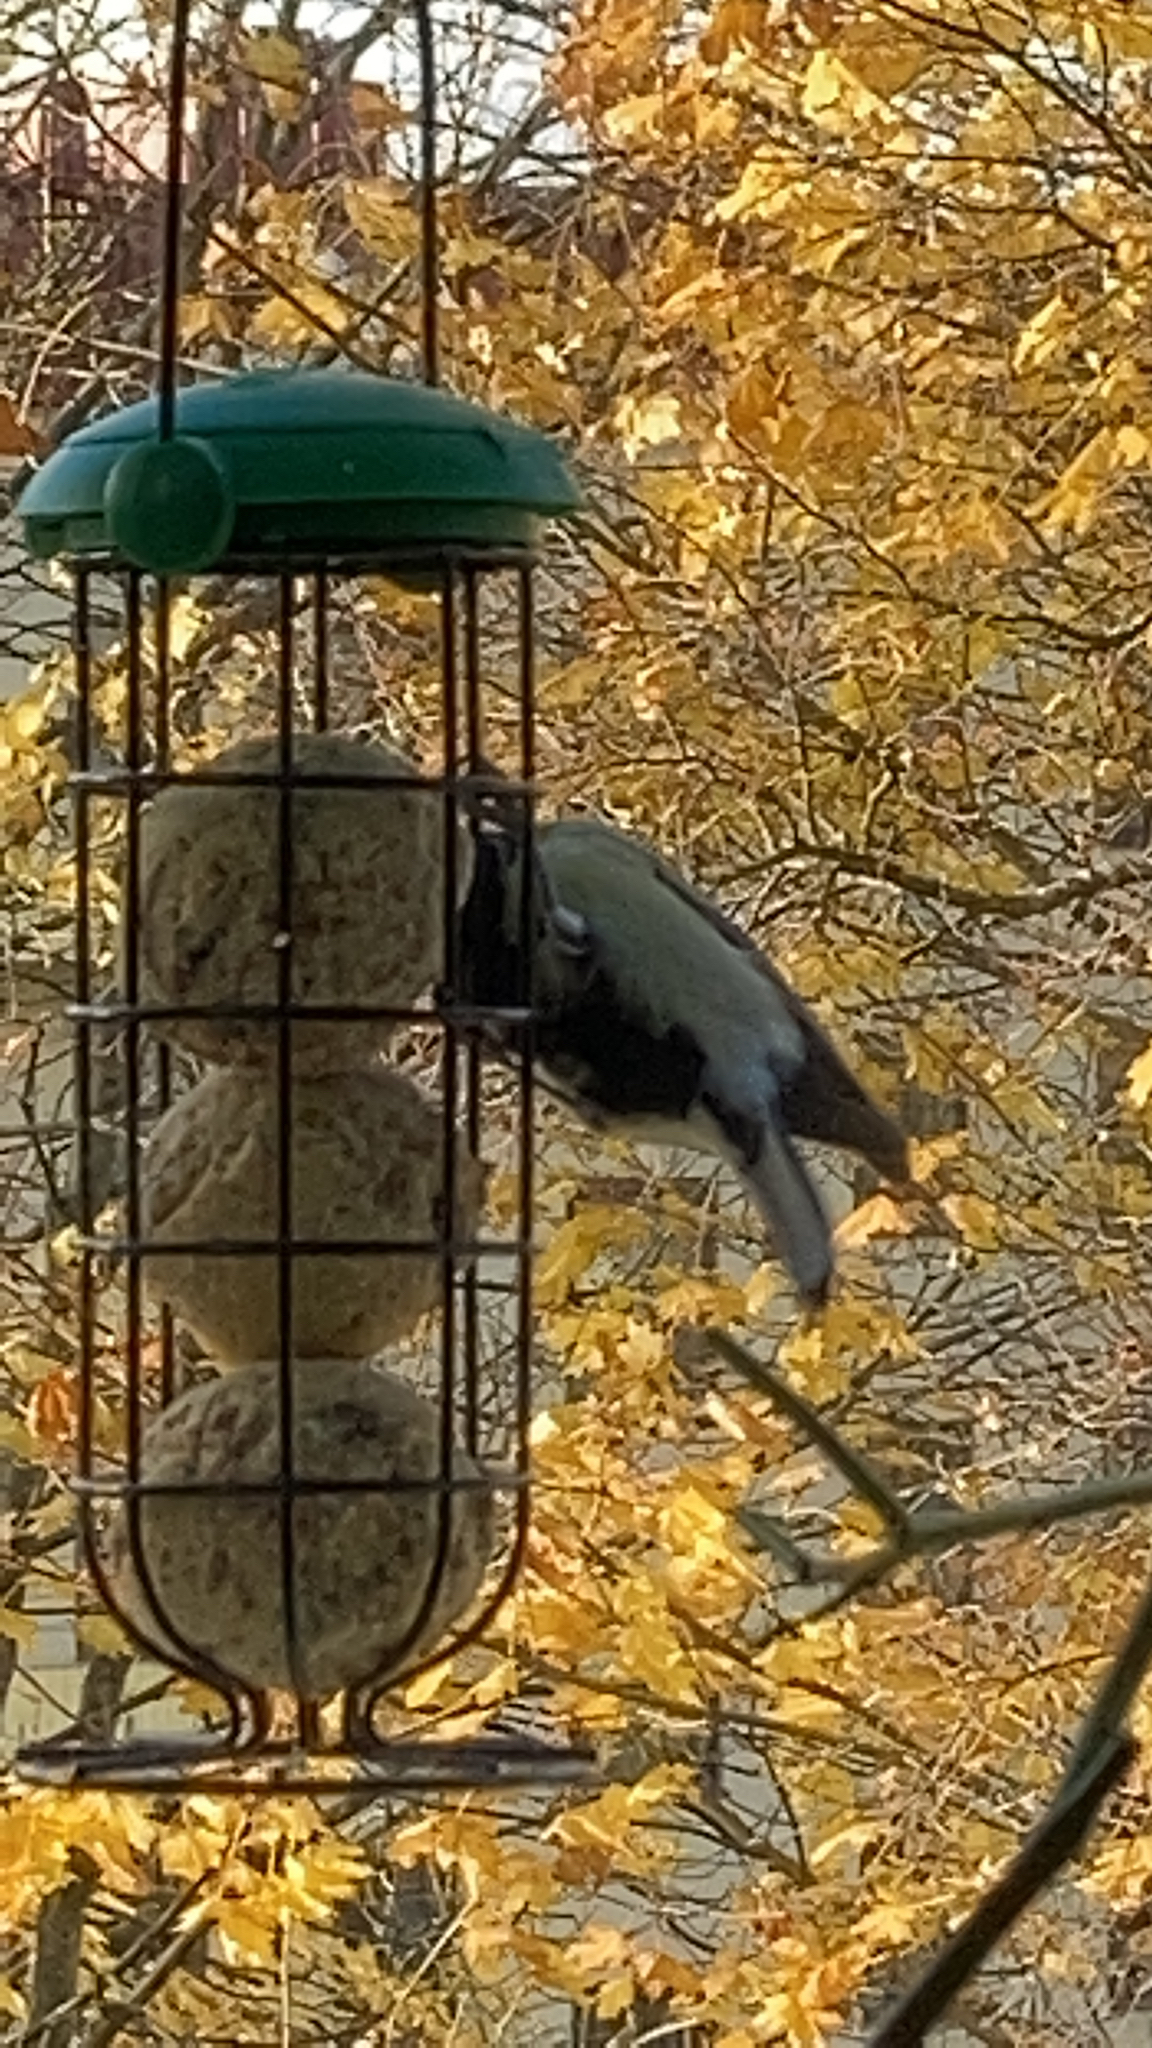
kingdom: Animalia
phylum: Chordata
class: Aves
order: Passeriformes
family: Paridae
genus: Parus
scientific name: Parus major
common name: Great tit
